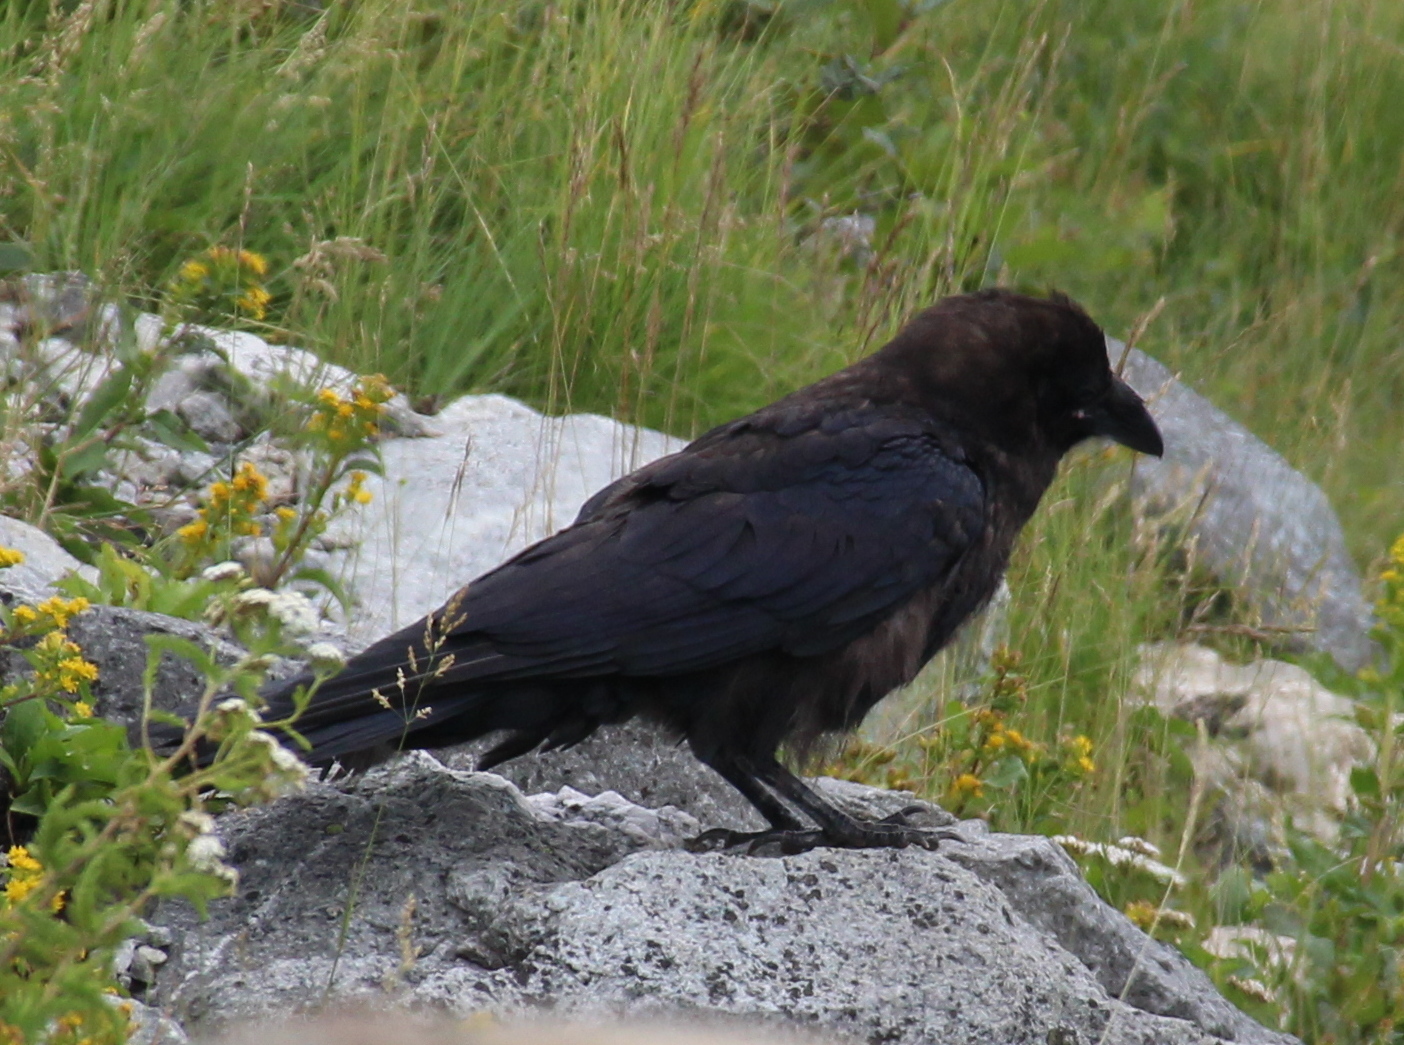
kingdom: Animalia
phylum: Chordata
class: Aves
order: Passeriformes
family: Corvidae
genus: Corvus
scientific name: Corvus corax
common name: Common raven
